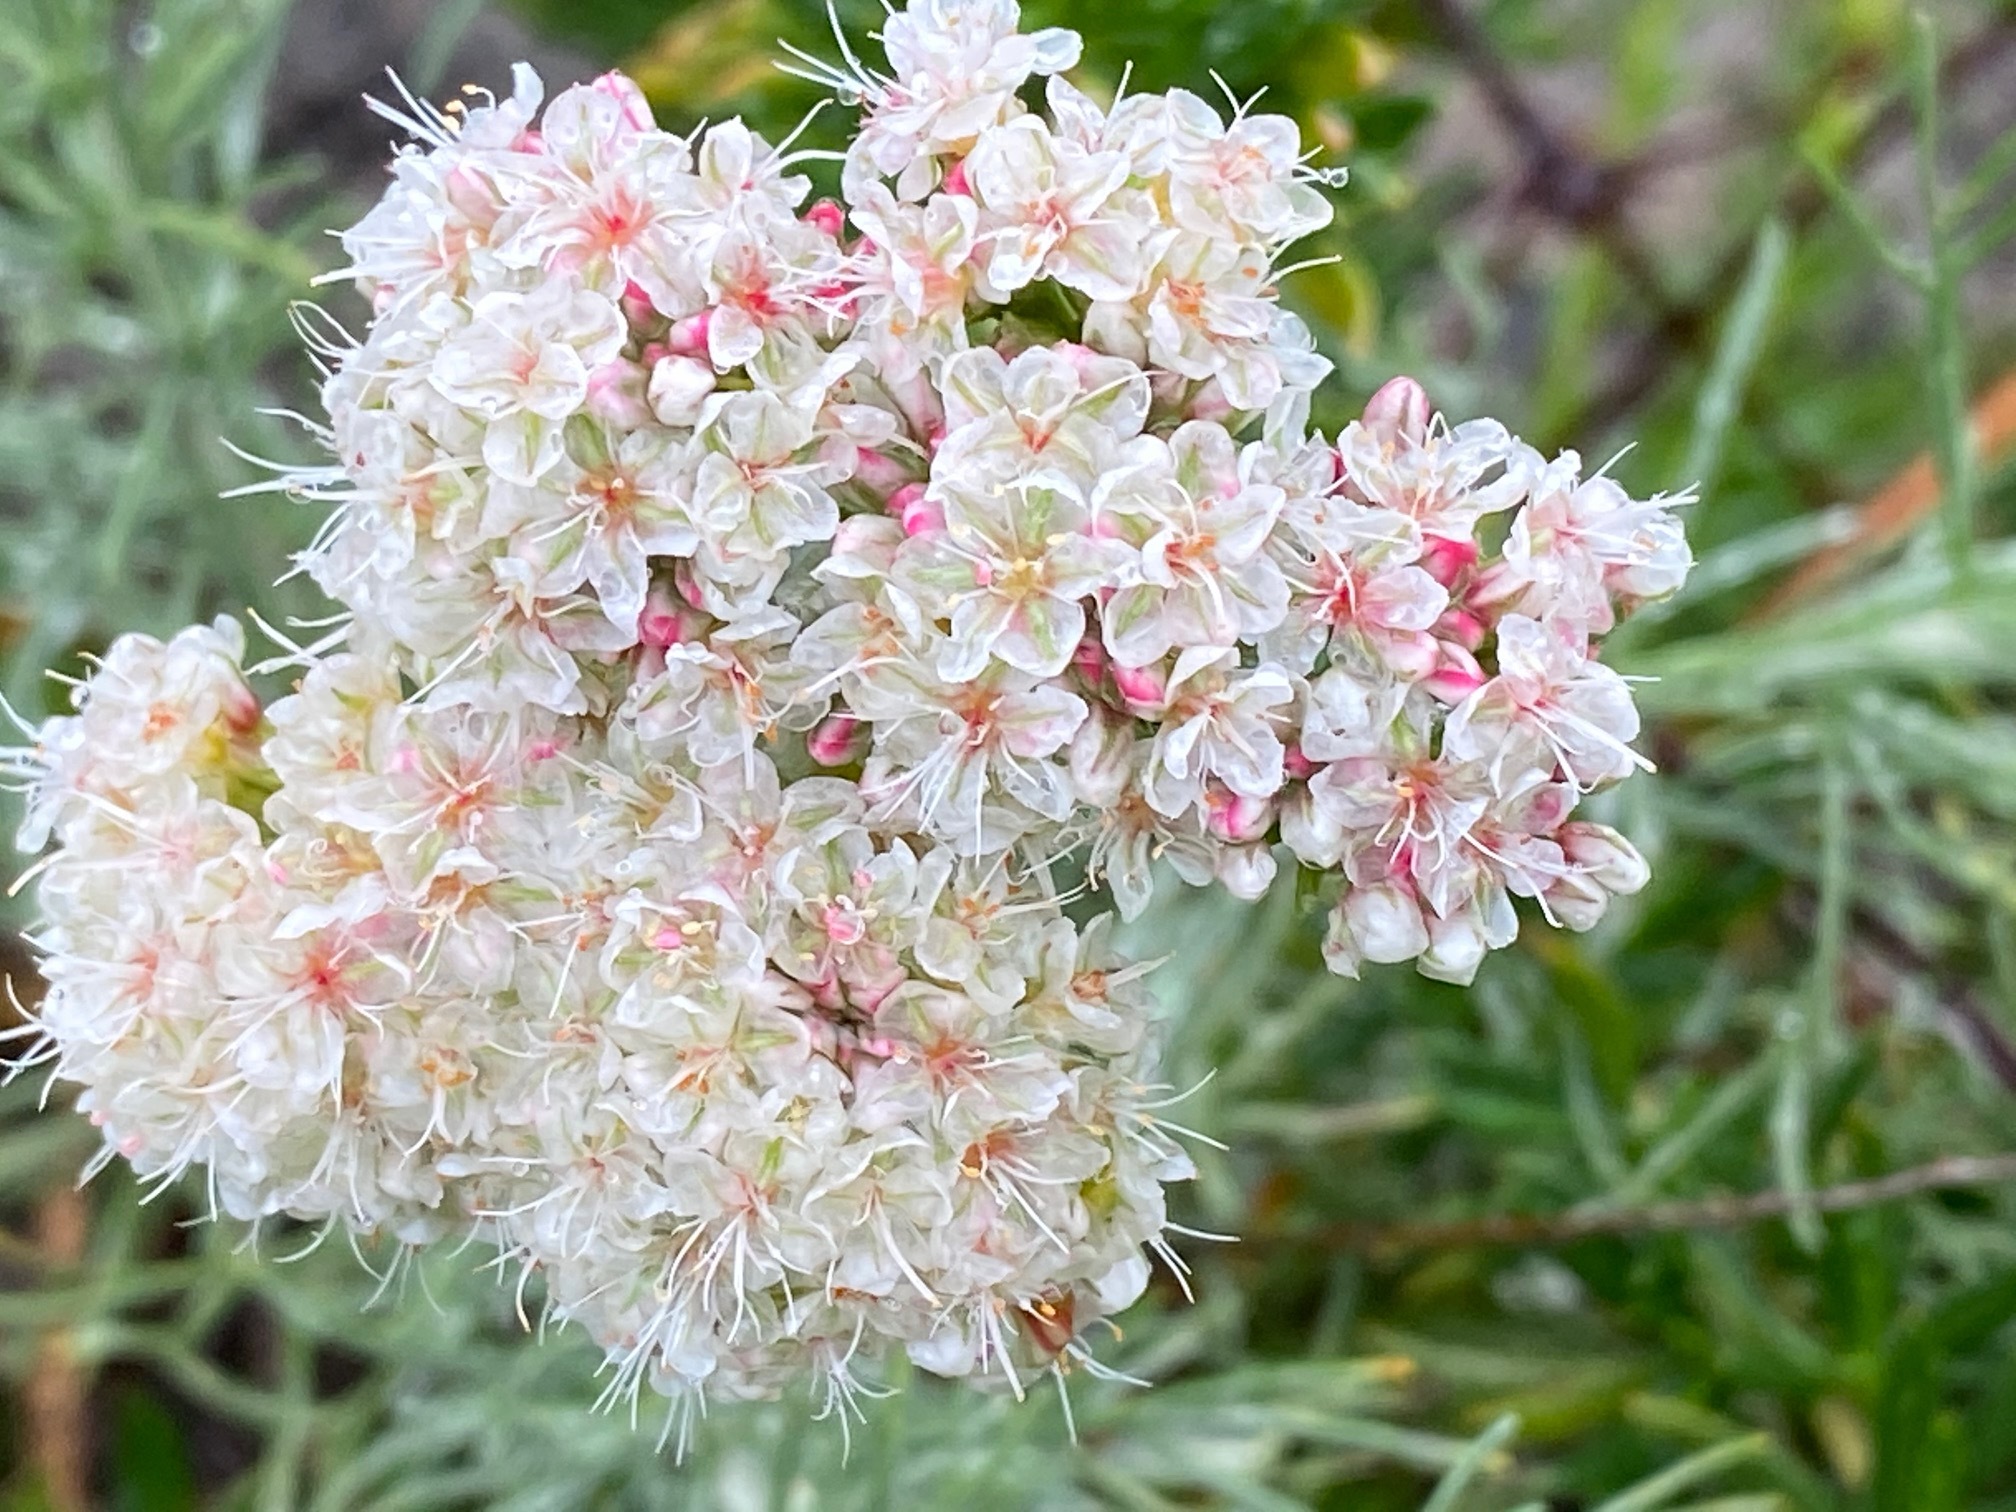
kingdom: Plantae
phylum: Tracheophyta
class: Magnoliopsida
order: Caryophyllales
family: Polygonaceae
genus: Eriogonum
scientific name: Eriogonum fasciculatum
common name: California wild buckwheat
